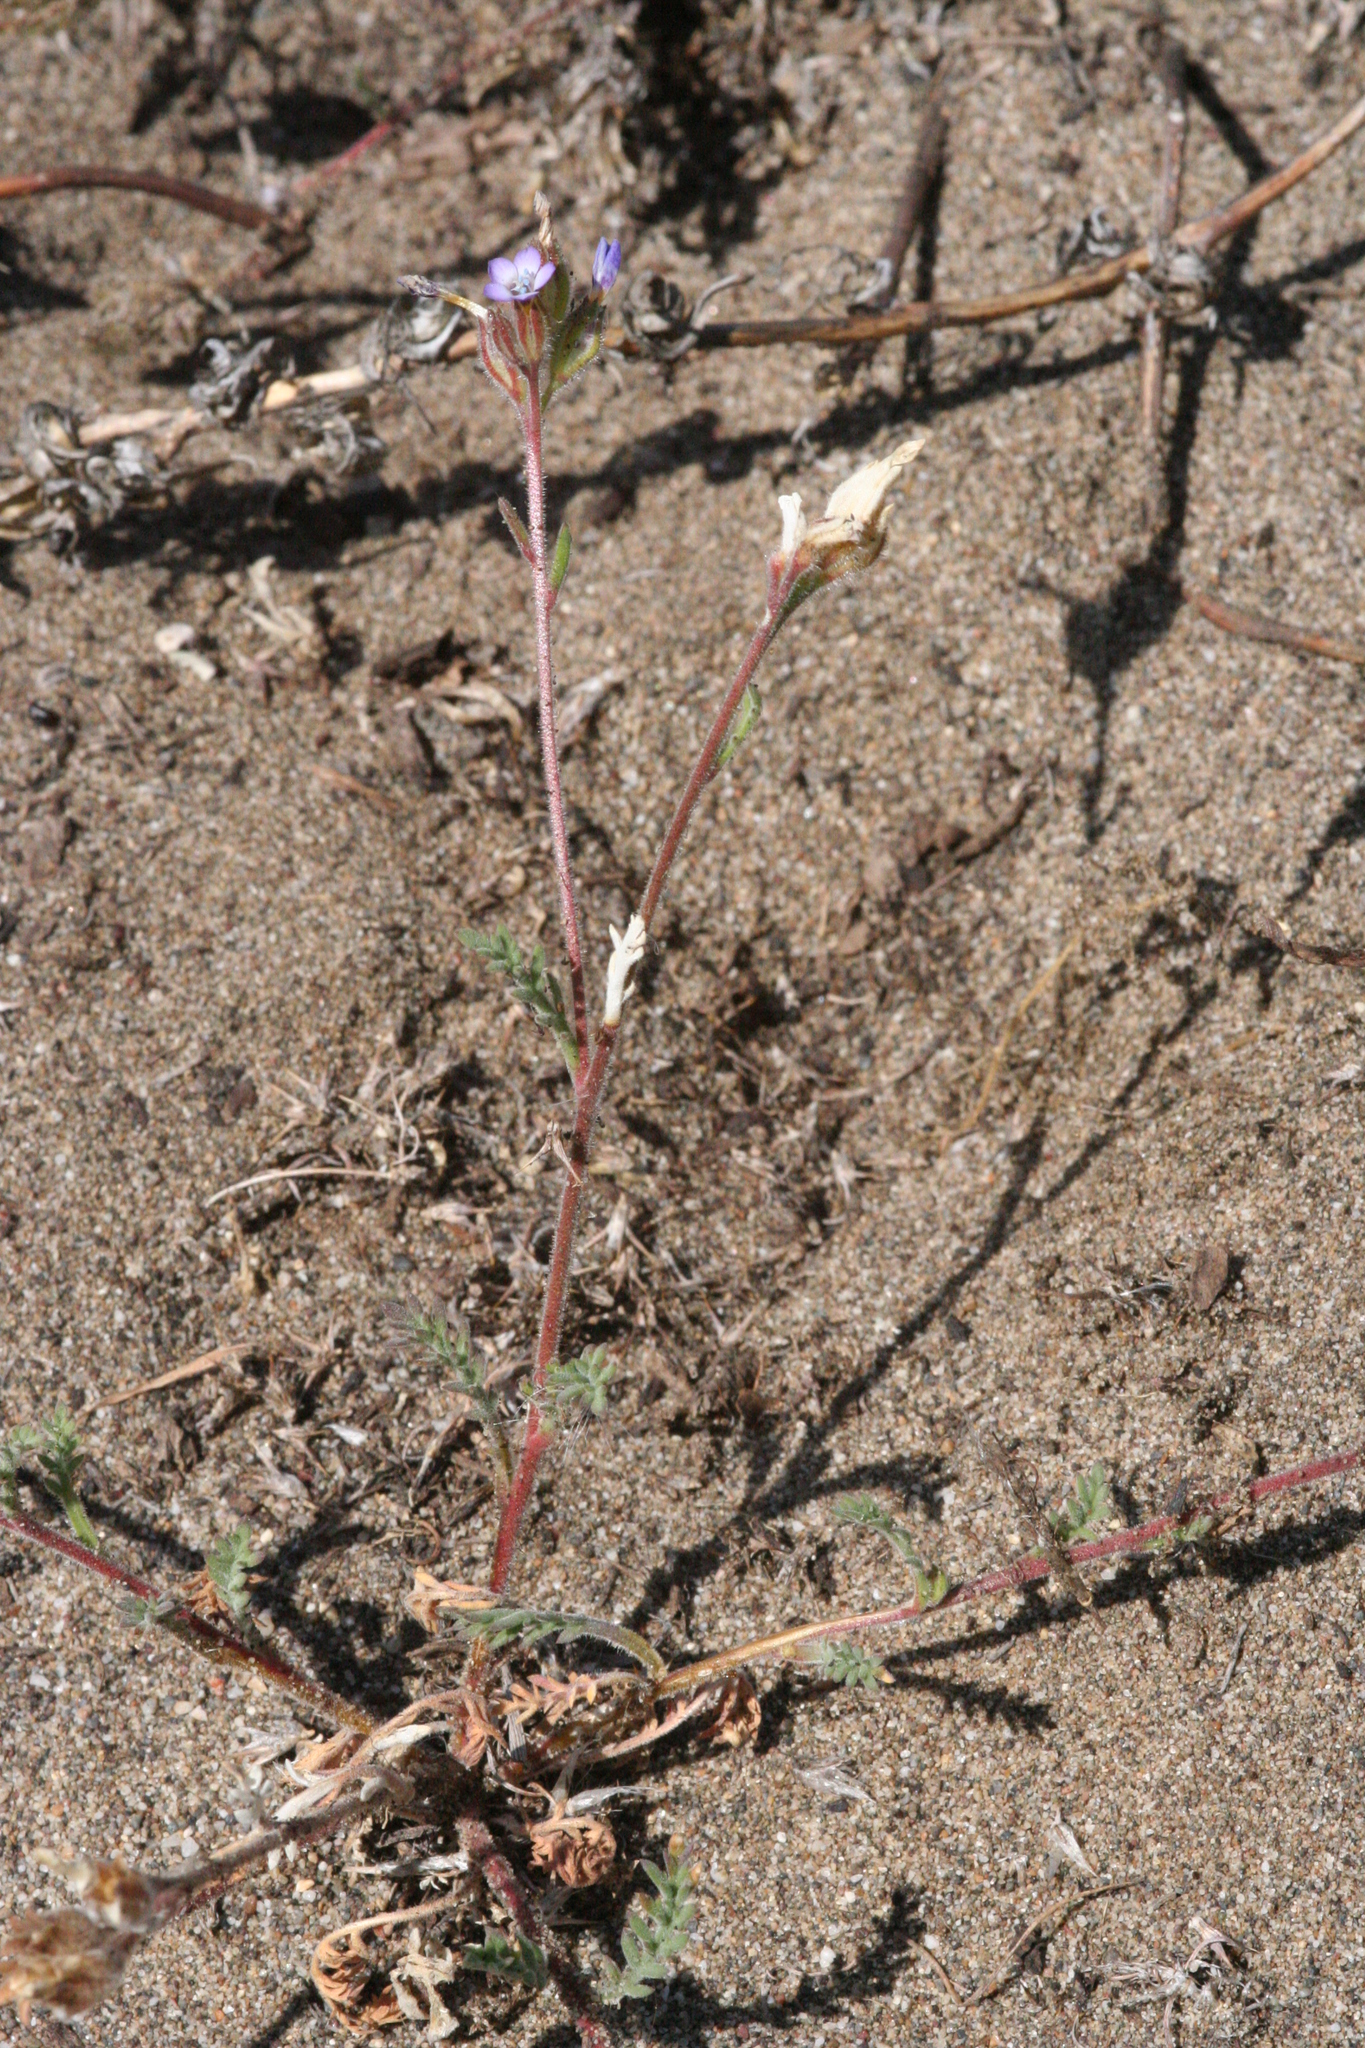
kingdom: Plantae
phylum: Tracheophyta
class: Magnoliopsida
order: Ericales
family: Polemoniaceae
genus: Gilia
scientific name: Gilia millefoliata
